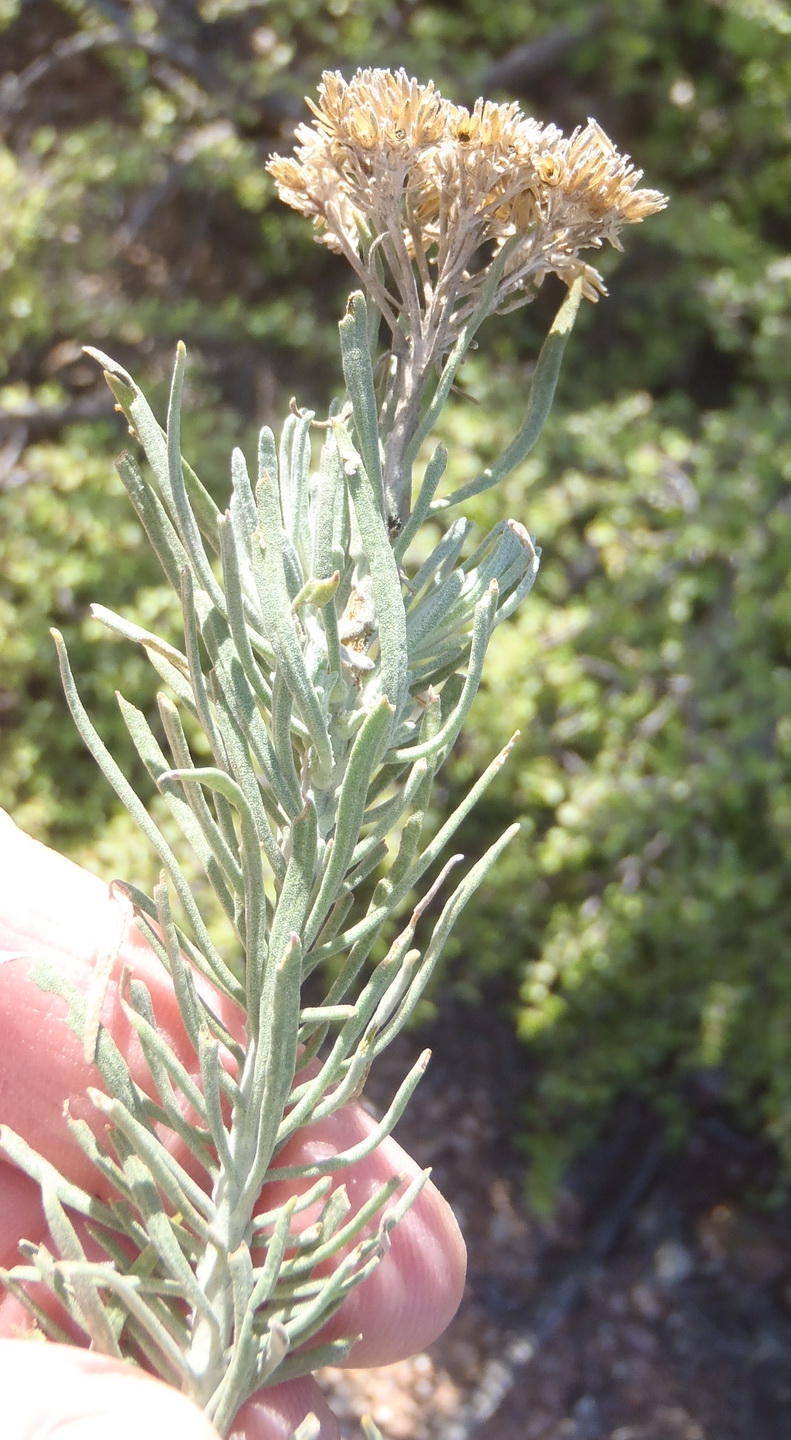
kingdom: Plantae
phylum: Tracheophyta
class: Magnoliopsida
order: Asterales
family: Asteraceae
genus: Athanasia
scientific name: Athanasia tomentosa
